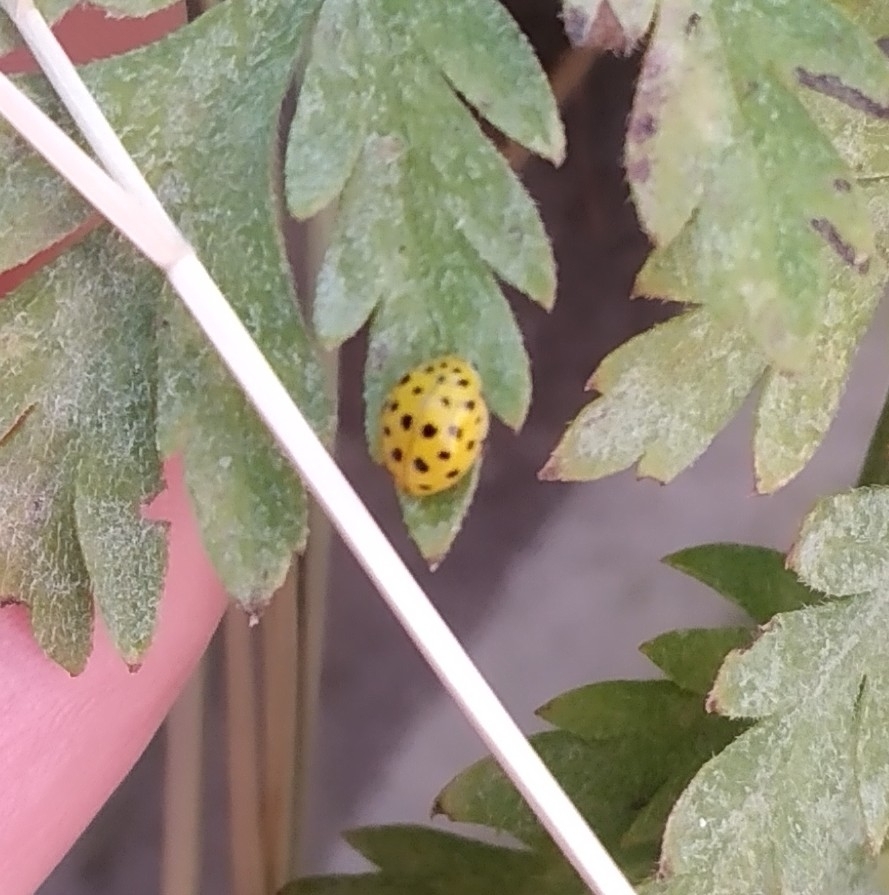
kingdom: Animalia
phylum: Arthropoda
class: Insecta
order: Coleoptera
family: Coccinellidae
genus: Psyllobora
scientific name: Psyllobora vigintiduopunctata
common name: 22-spot ladybird
